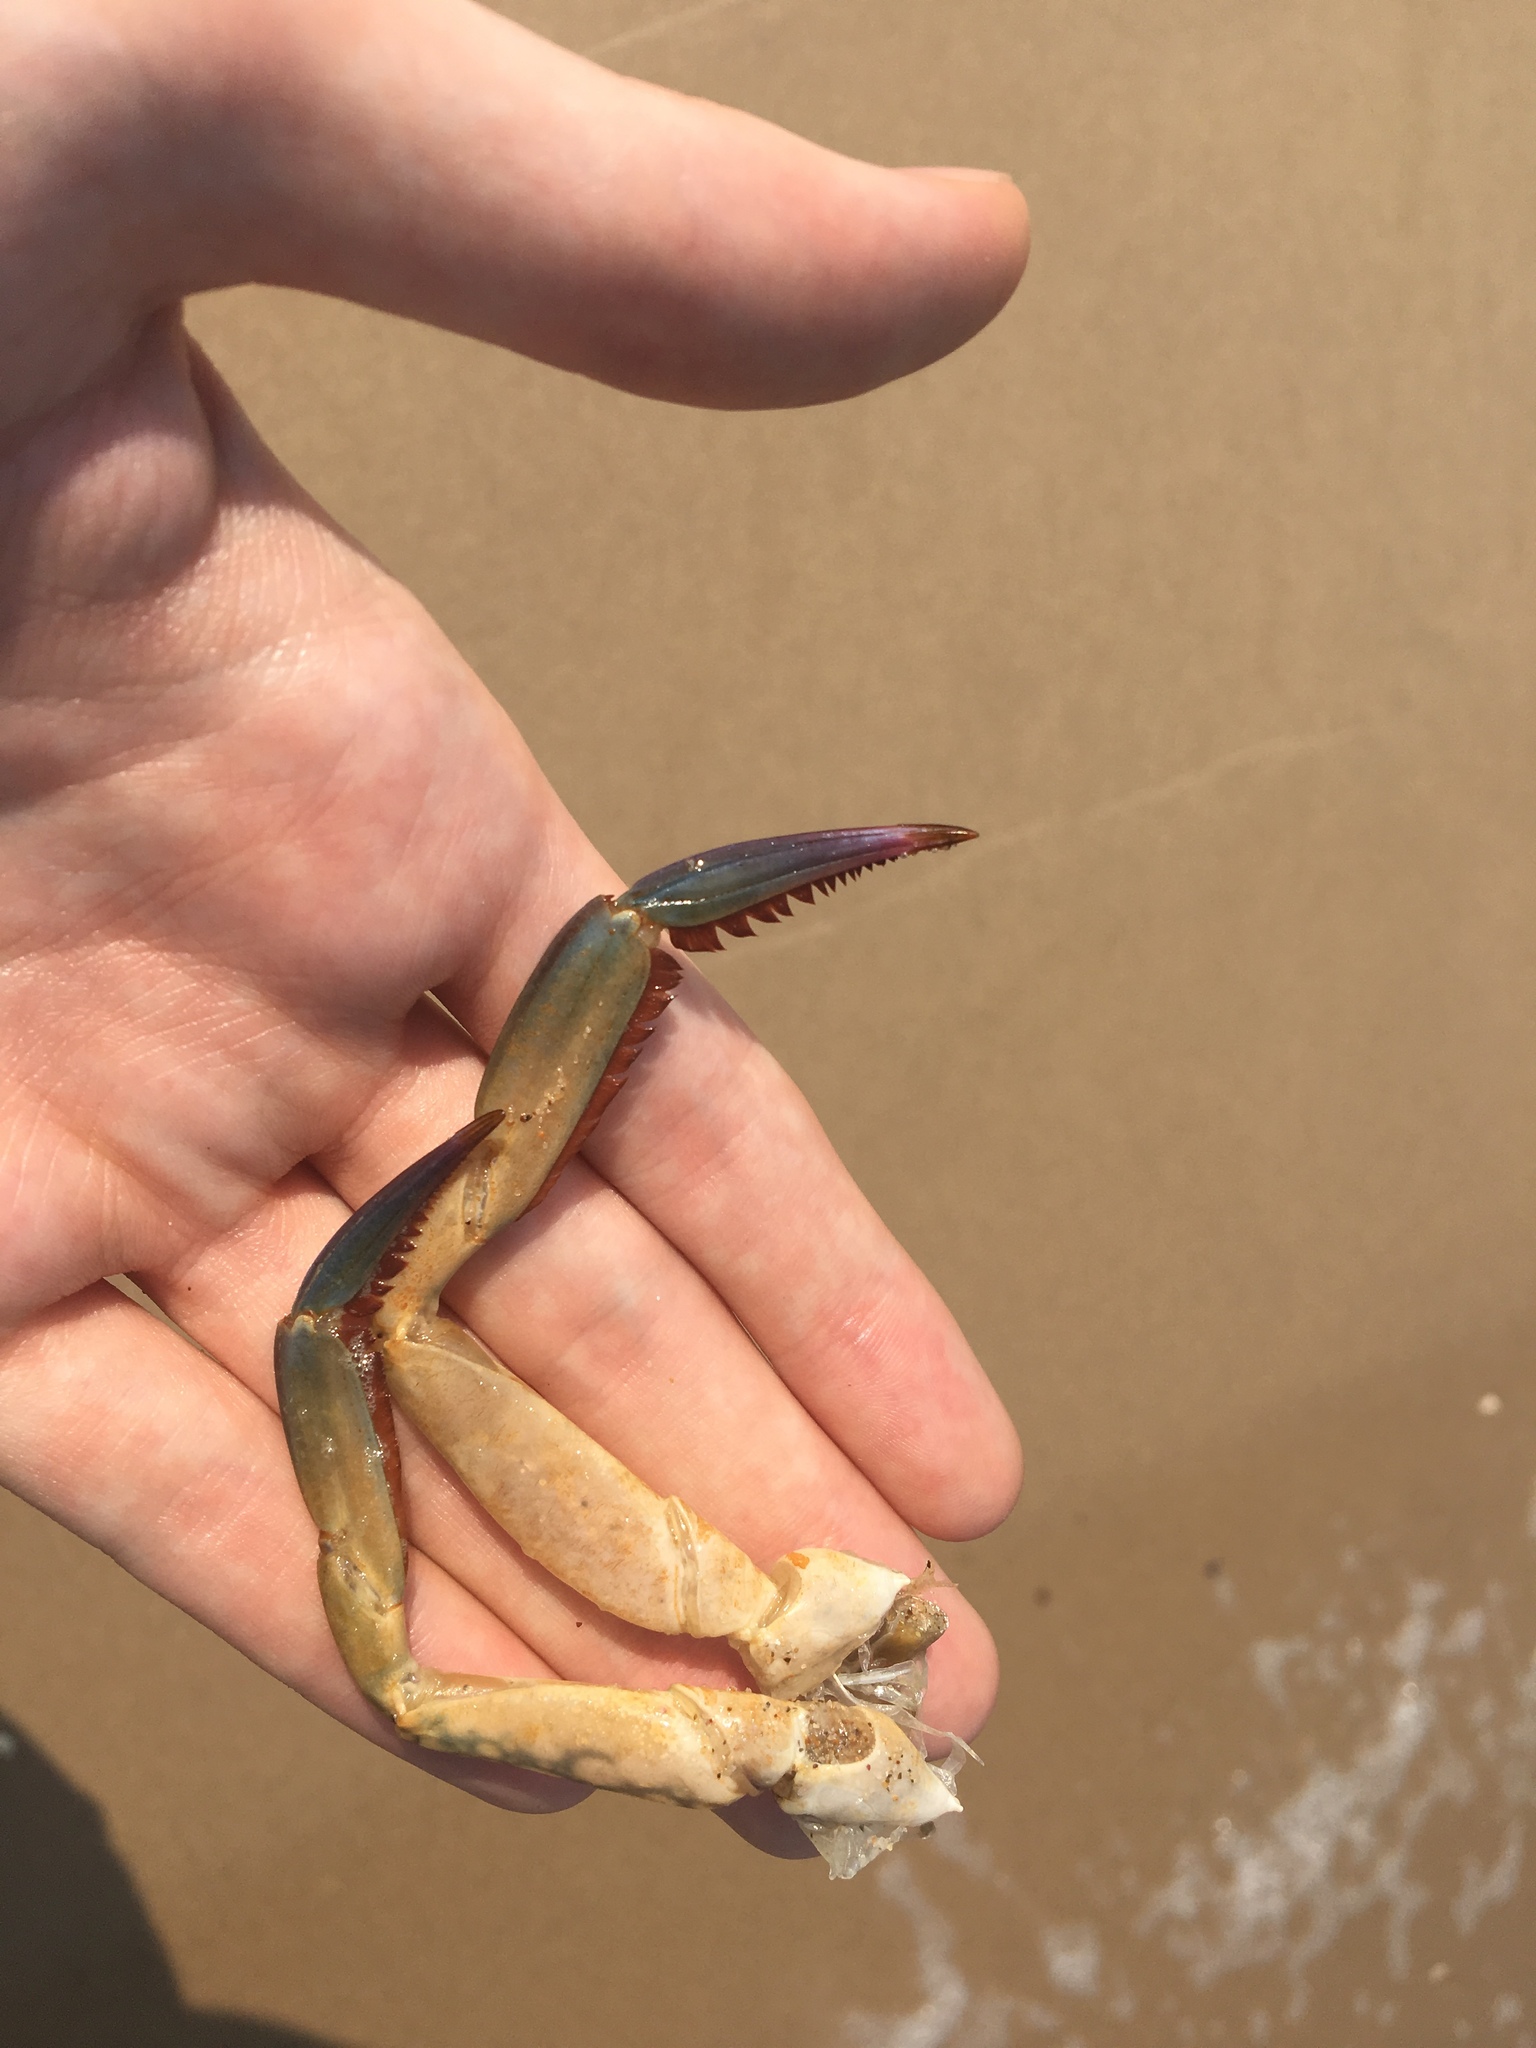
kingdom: Animalia
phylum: Arthropoda
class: Malacostraca
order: Decapoda
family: Portunidae
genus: Portunus
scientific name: Portunus armatus
